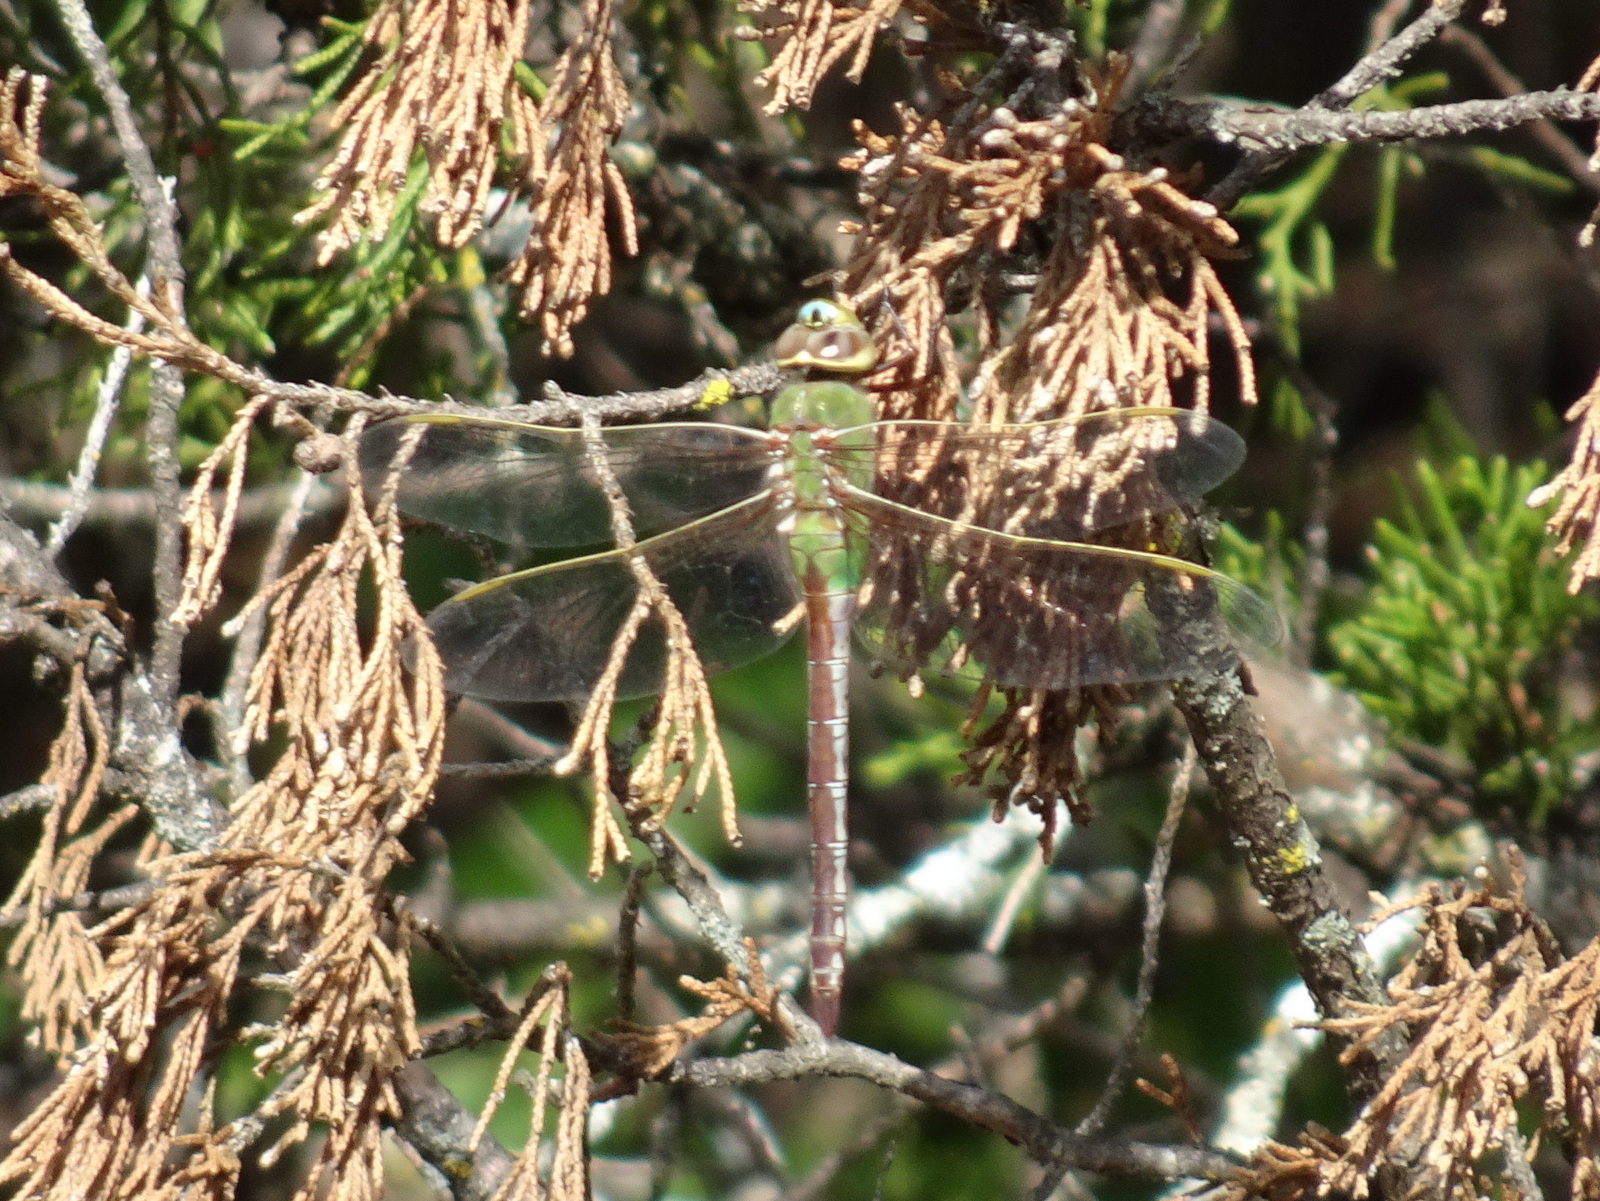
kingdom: Animalia
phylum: Arthropoda
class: Insecta
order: Odonata
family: Aeshnidae
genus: Anax
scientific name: Anax junius
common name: Common green darner
